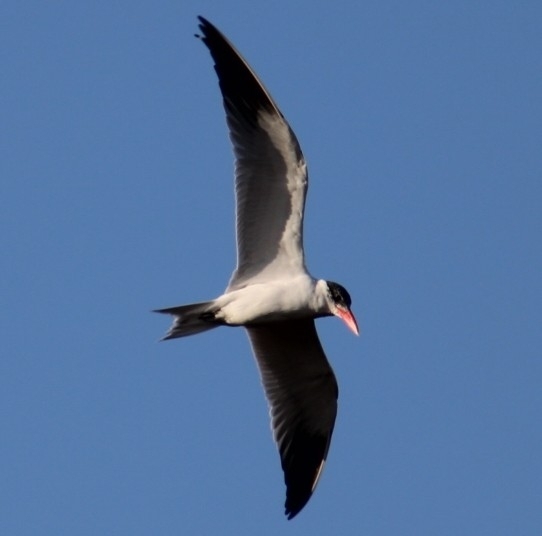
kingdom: Animalia
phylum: Chordata
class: Aves
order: Charadriiformes
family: Laridae
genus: Hydroprogne
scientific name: Hydroprogne caspia
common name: Caspian tern
